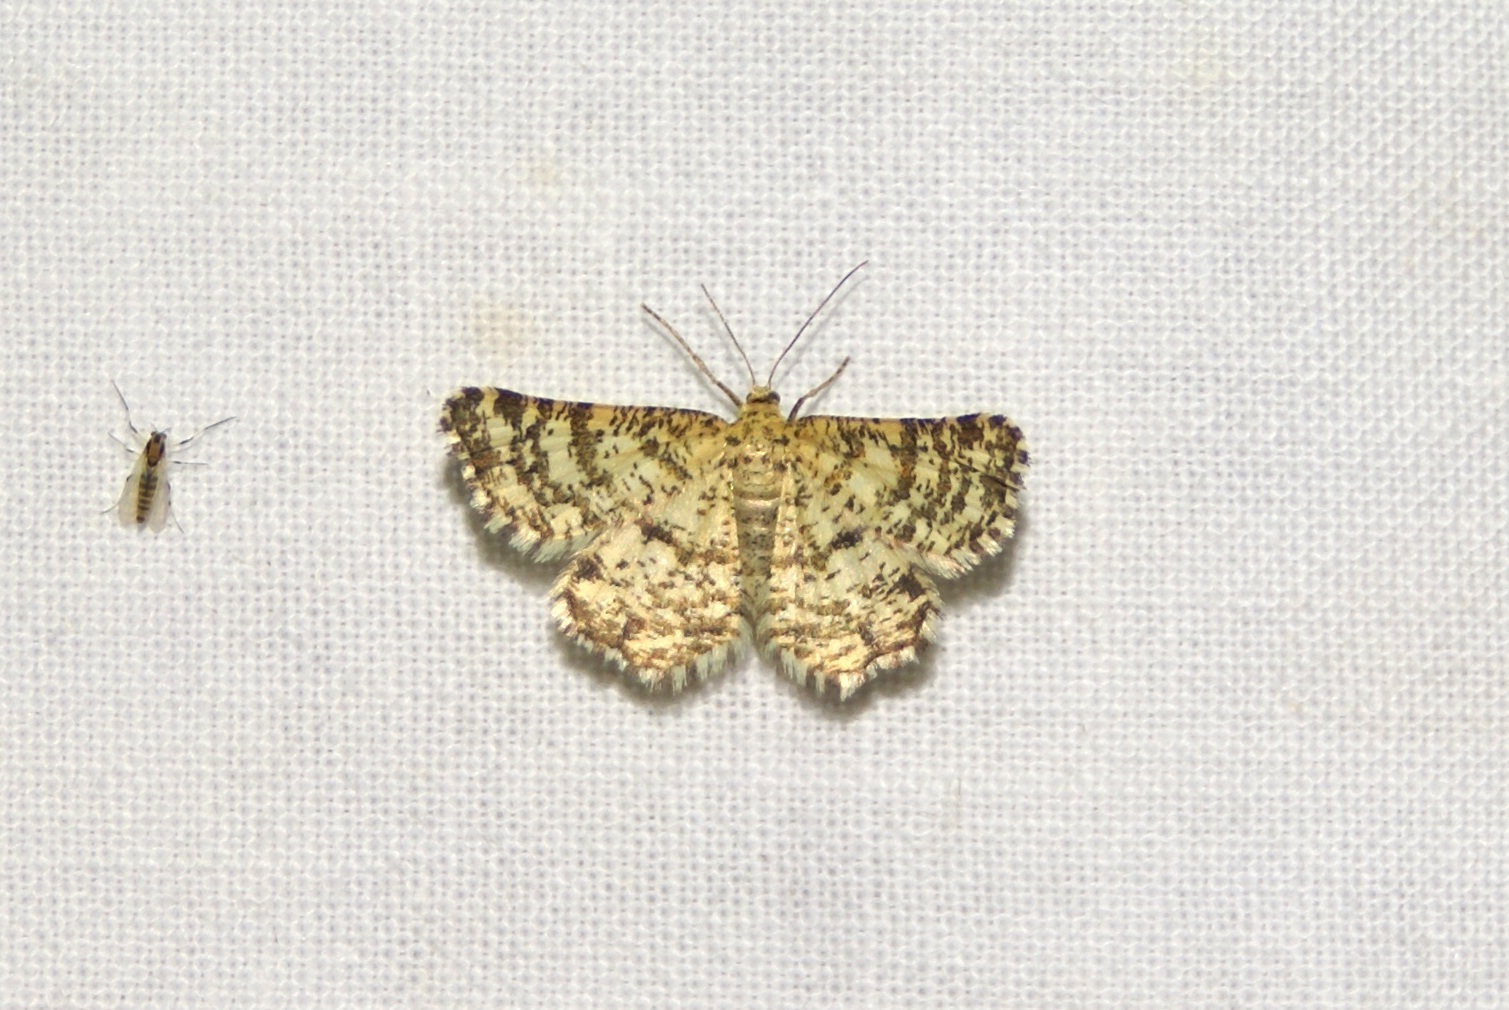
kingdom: Animalia
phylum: Arthropoda
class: Insecta
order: Lepidoptera
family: Geometridae
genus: Heliomata
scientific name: Heliomata glarearia
